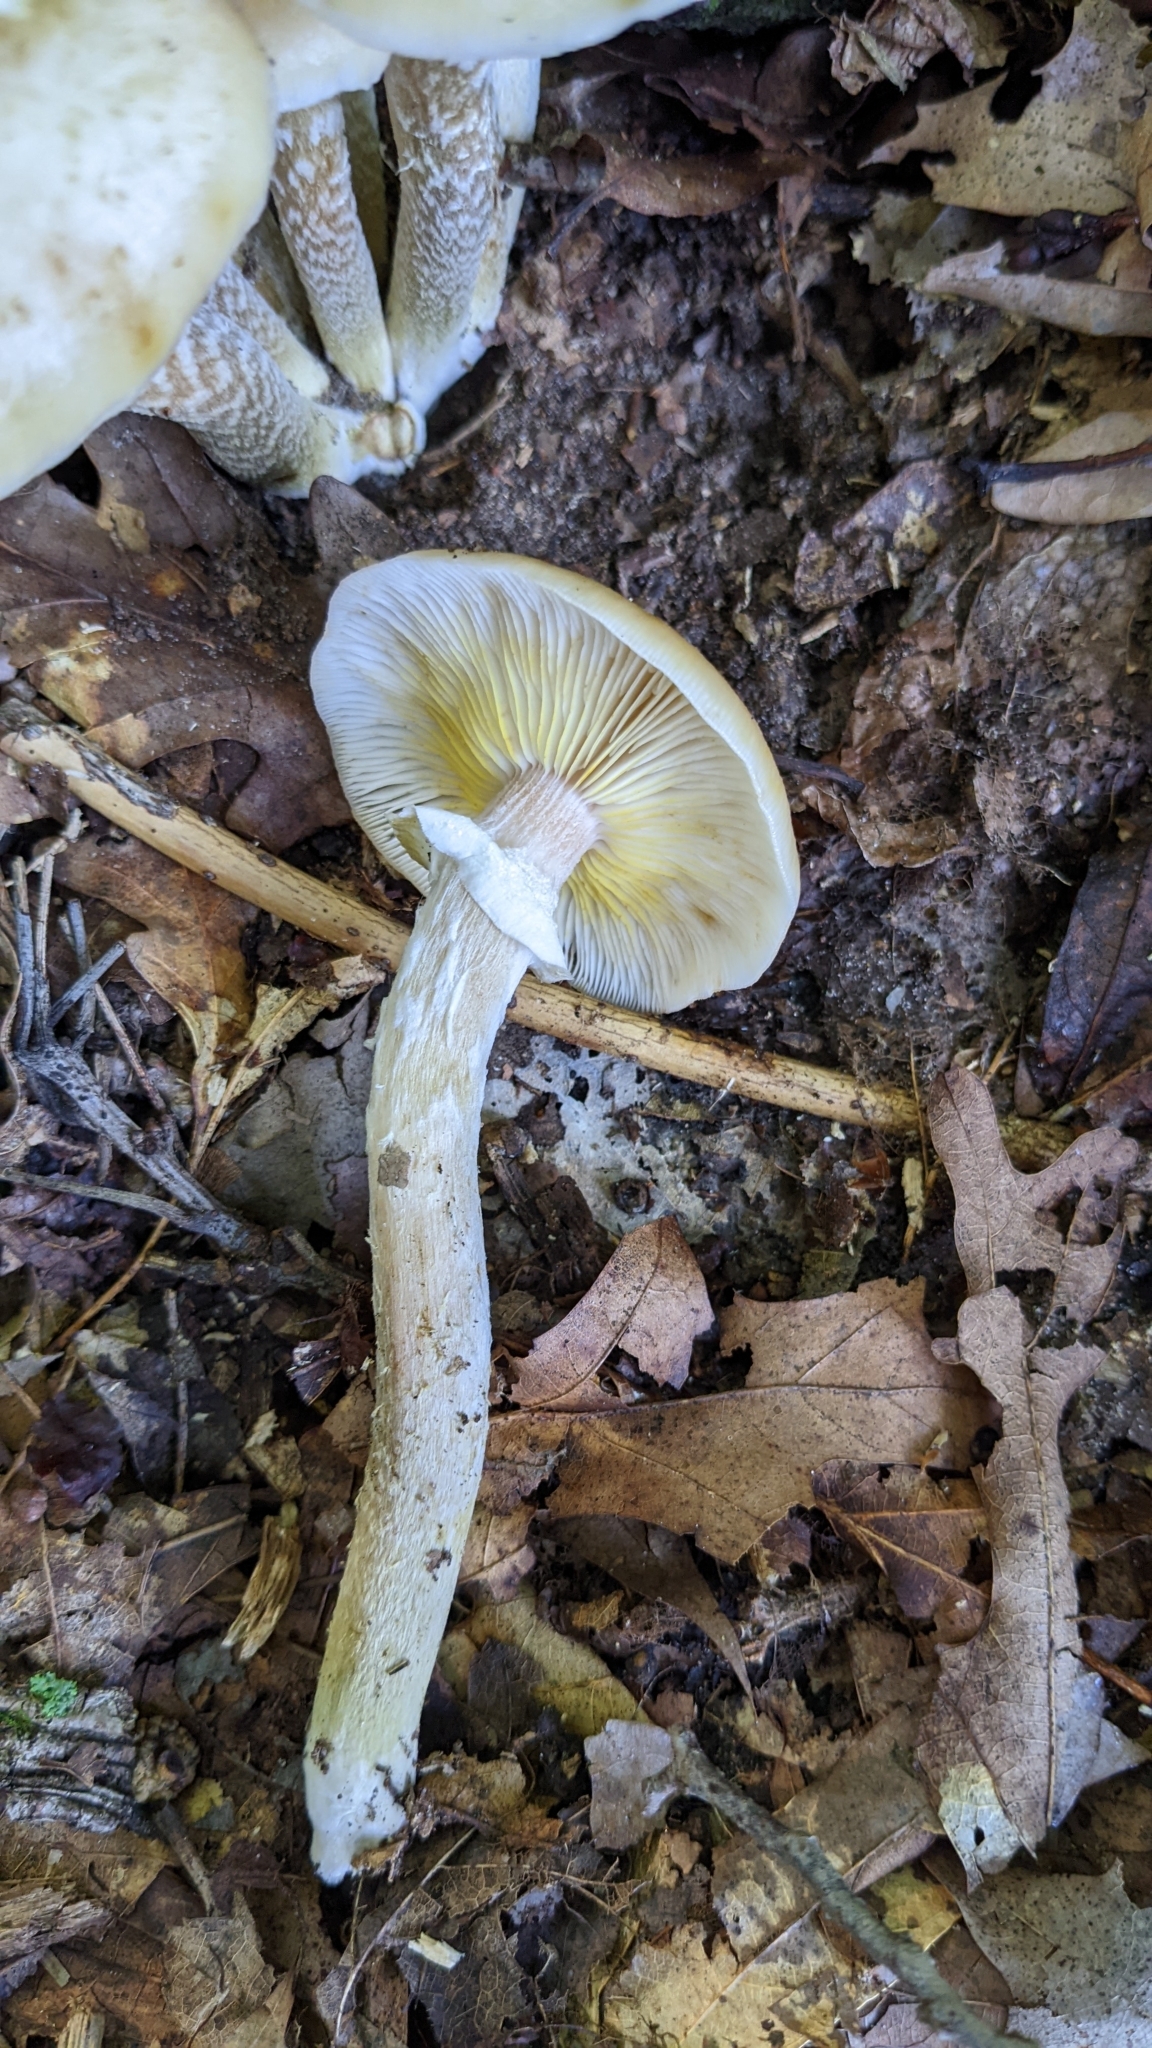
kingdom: Fungi
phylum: Basidiomycota
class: Agaricomycetes
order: Agaricales
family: Physalacriaceae
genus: Armillaria
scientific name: Armillaria mellea
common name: Honey fungus
